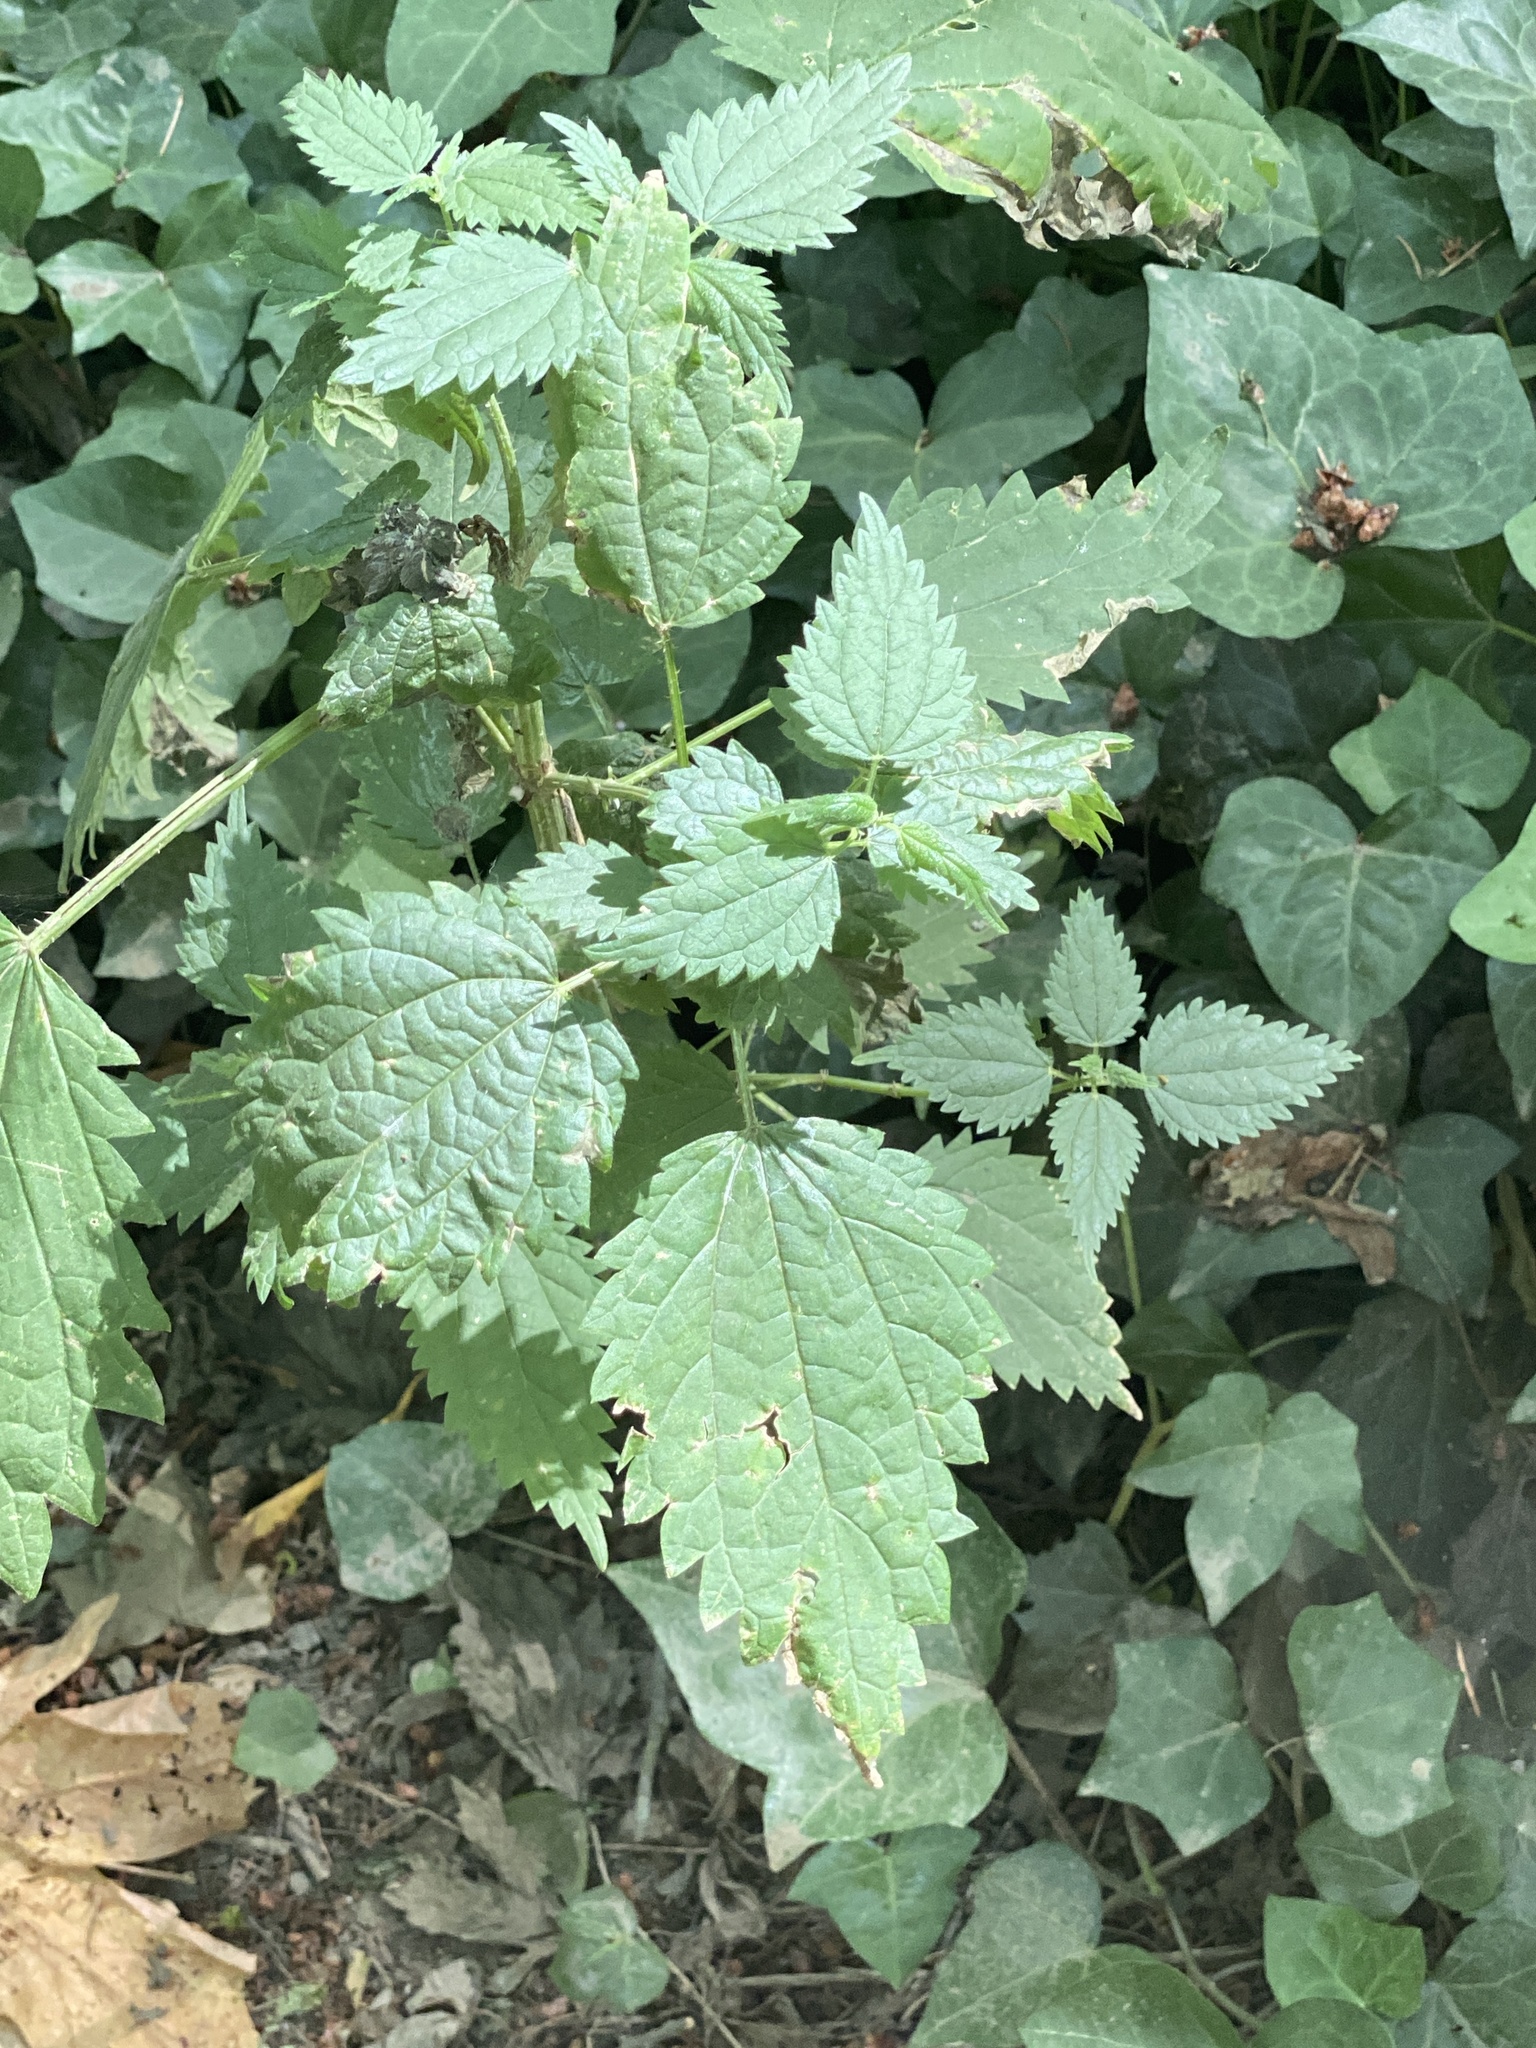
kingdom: Plantae
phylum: Tracheophyta
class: Magnoliopsida
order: Rosales
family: Urticaceae
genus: Urtica
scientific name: Urtica dioica
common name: Common nettle
